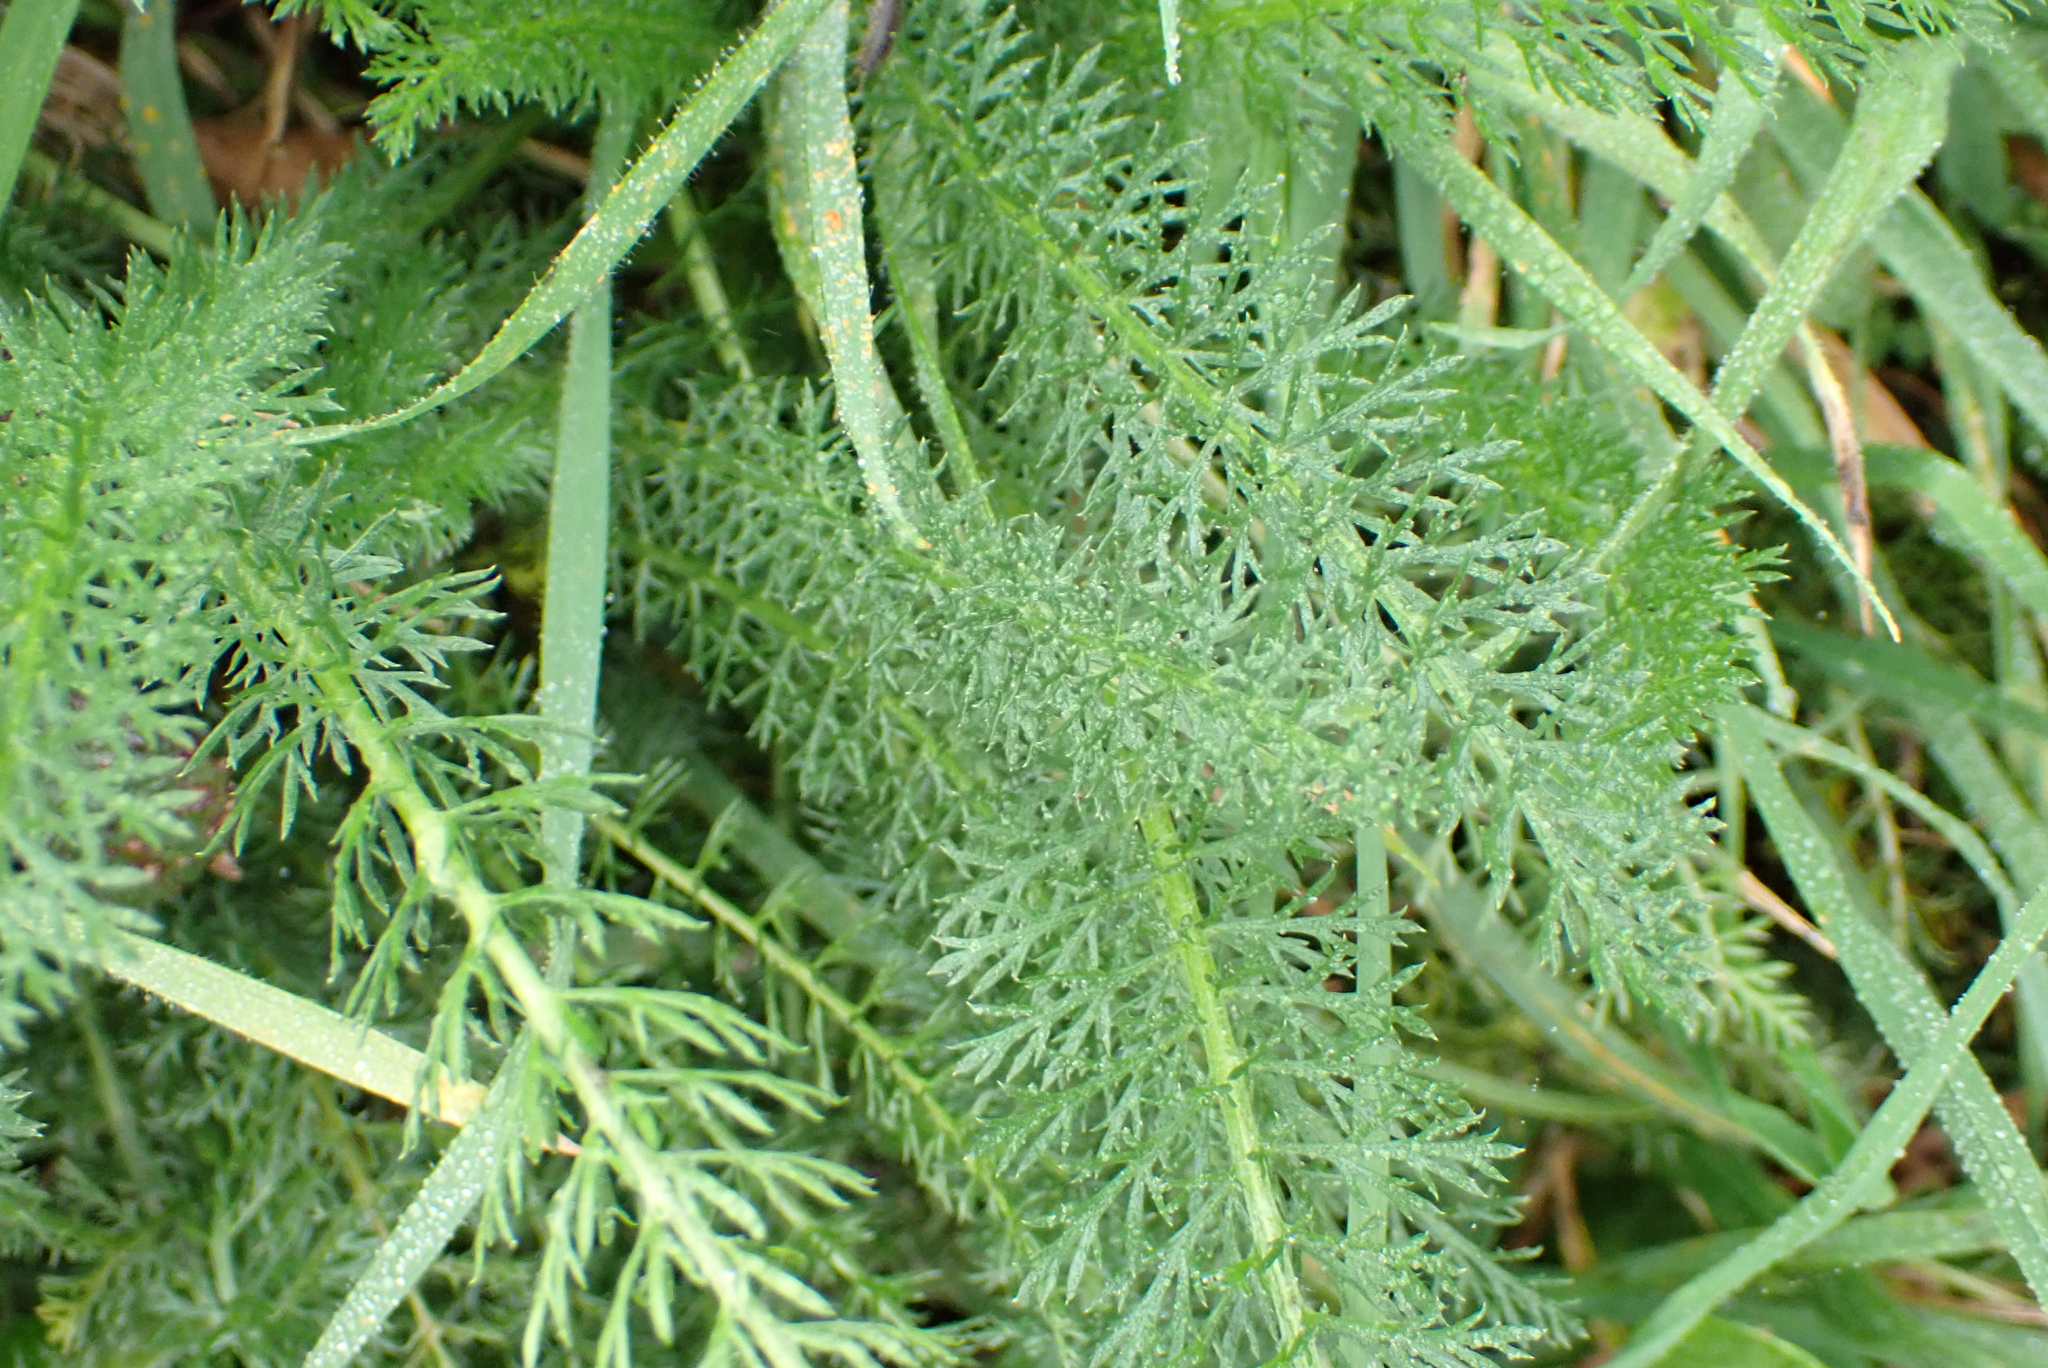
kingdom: Plantae
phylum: Tracheophyta
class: Magnoliopsida
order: Asterales
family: Asteraceae
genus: Achillea
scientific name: Achillea millefolium
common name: Yarrow
